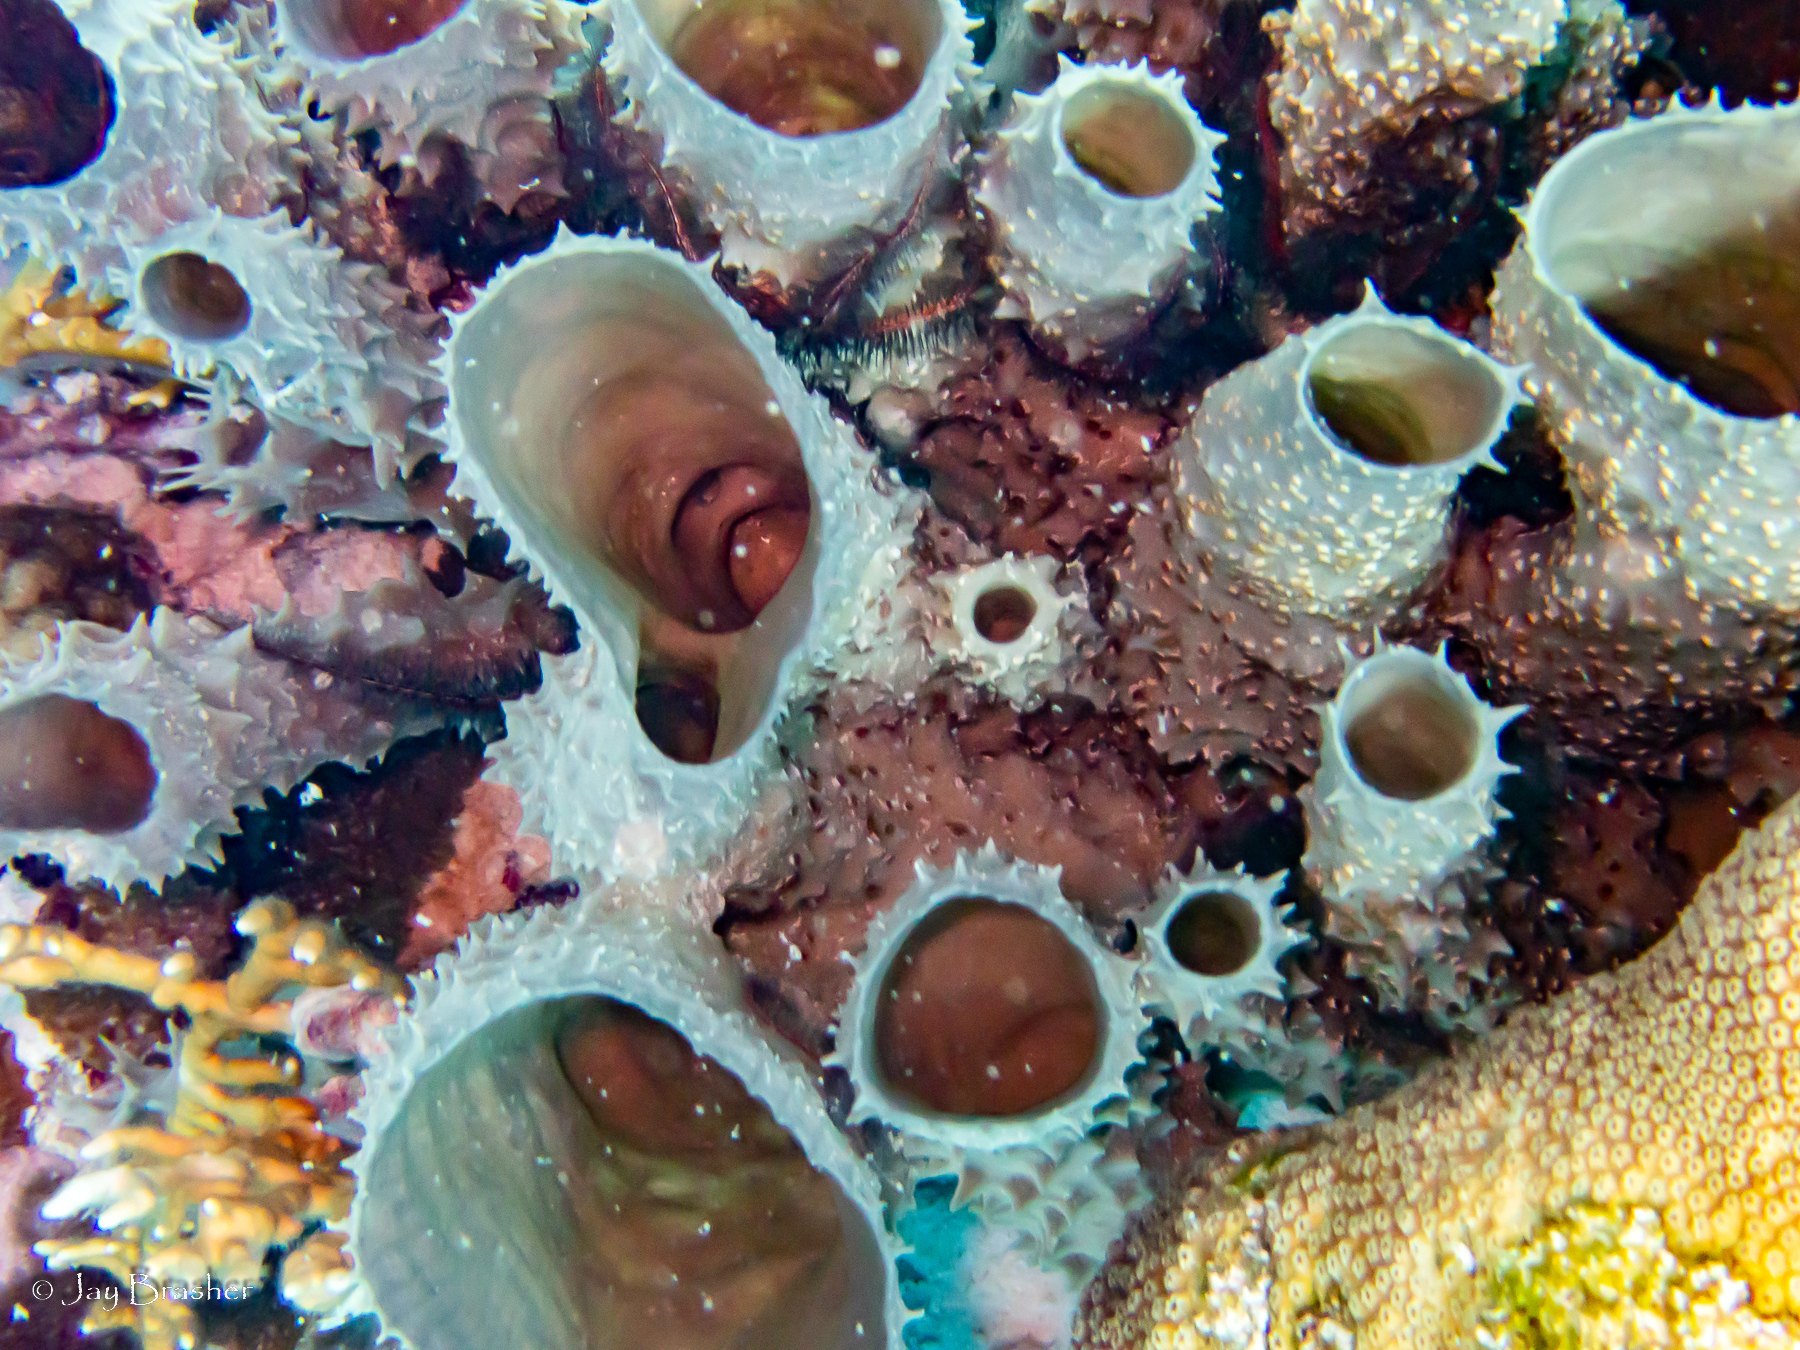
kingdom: Animalia
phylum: Porifera
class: Demospongiae
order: Haplosclerida
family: Callyspongiidae
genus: Callyspongia
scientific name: Callyspongia aculeata
